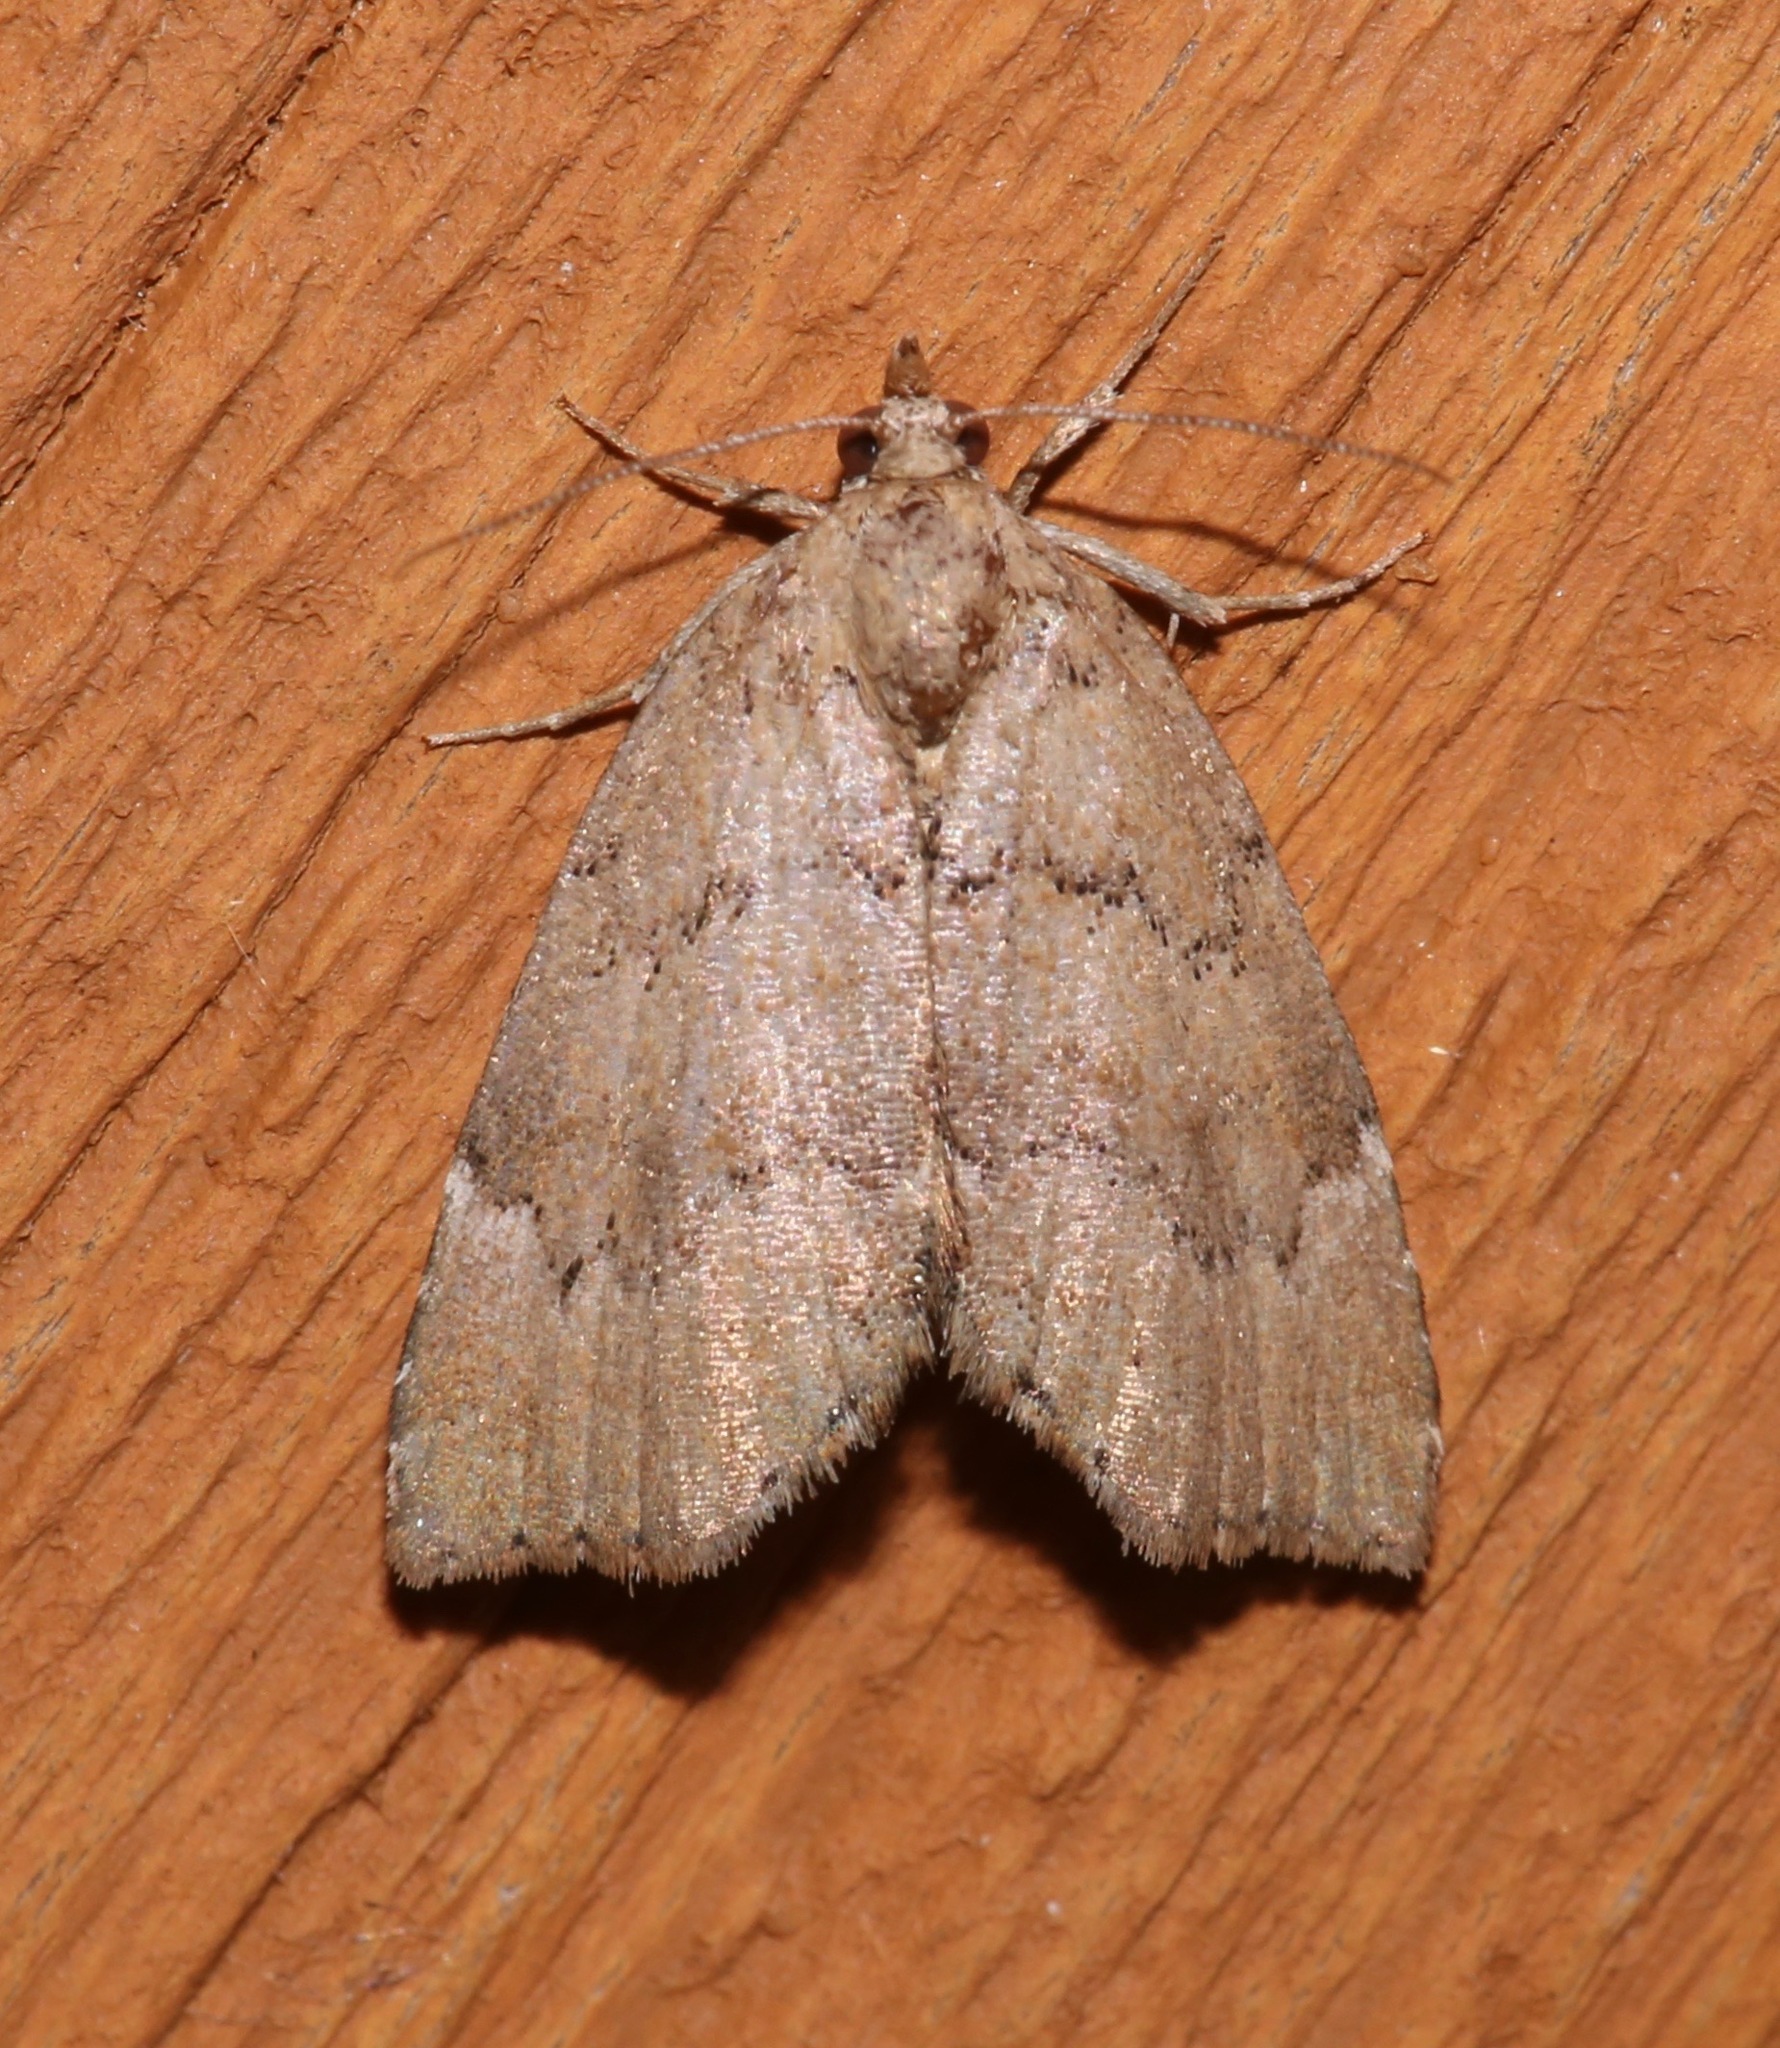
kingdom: Animalia
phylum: Arthropoda
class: Insecta
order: Lepidoptera
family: Erebidae
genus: Cutina
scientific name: Cutina aluticolor
